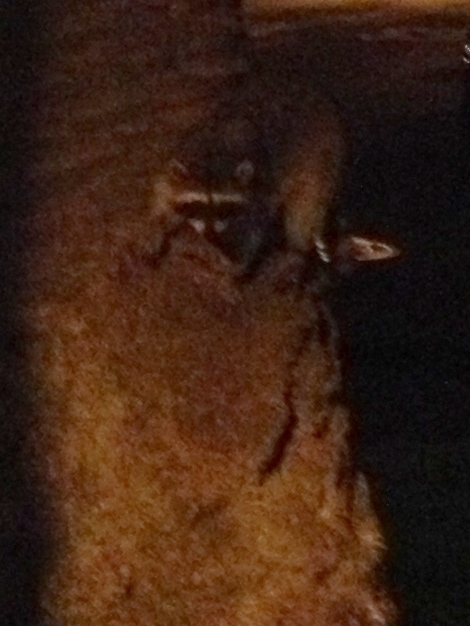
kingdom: Animalia
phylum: Chordata
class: Mammalia
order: Carnivora
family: Procyonidae
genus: Procyon
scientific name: Procyon lotor
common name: Raccoon
